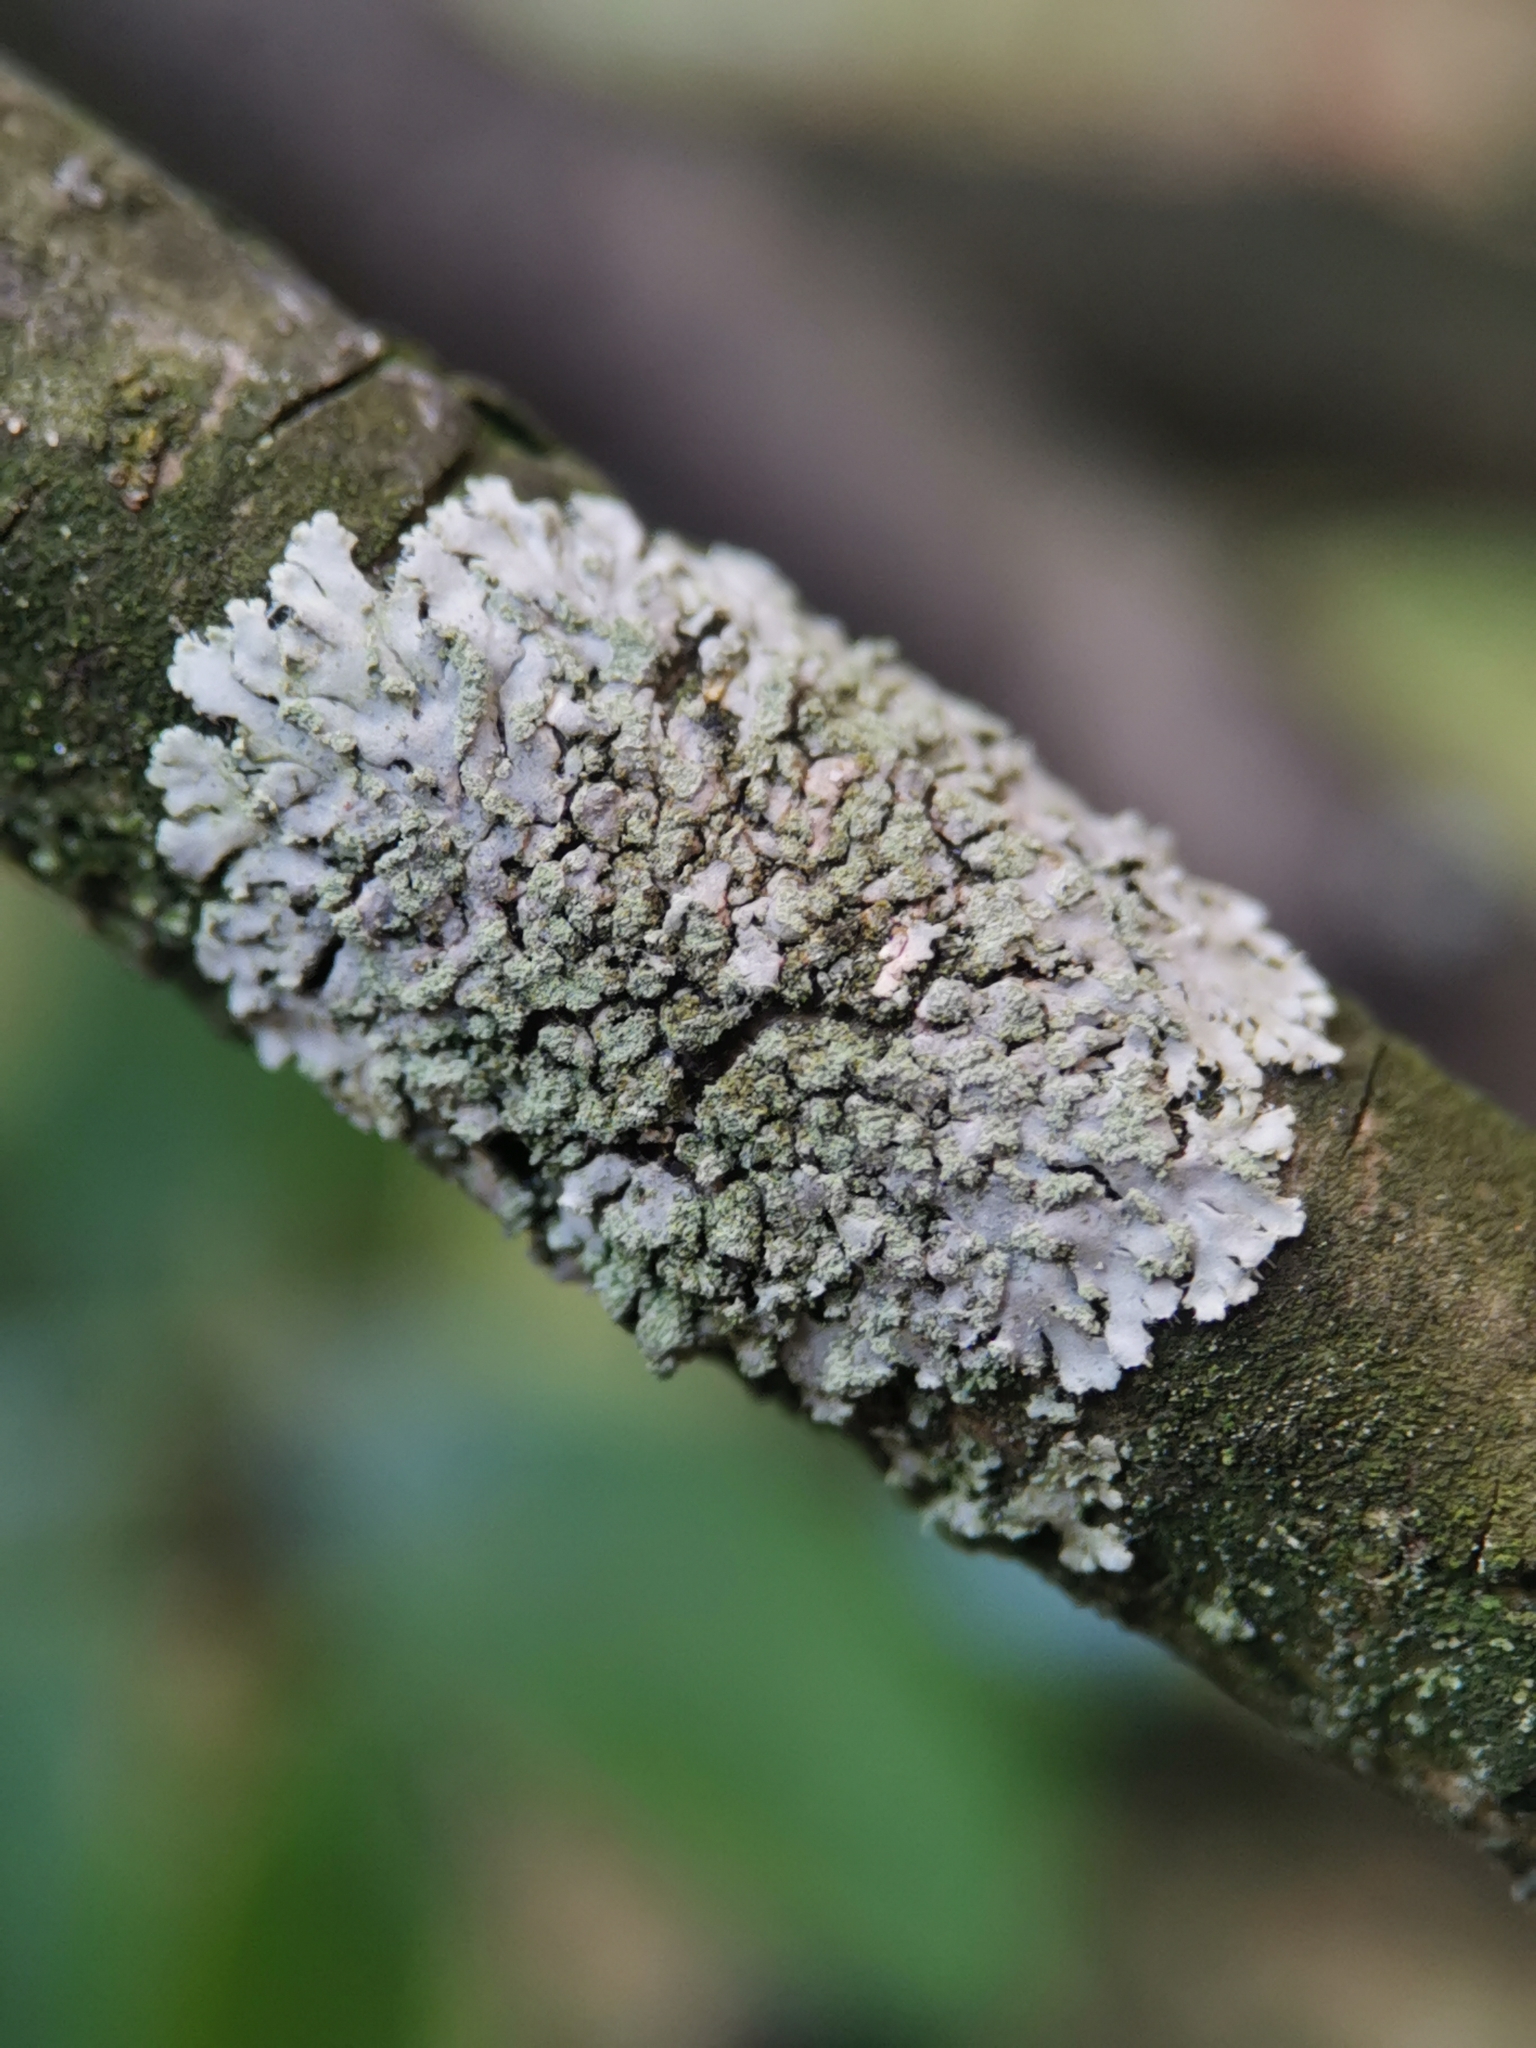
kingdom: Fungi
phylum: Ascomycota
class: Lecanoromycetes
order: Caliciales
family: Physciaceae
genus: Phaeophyscia
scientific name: Phaeophyscia orbicularis
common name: Mealy shadow lichen
